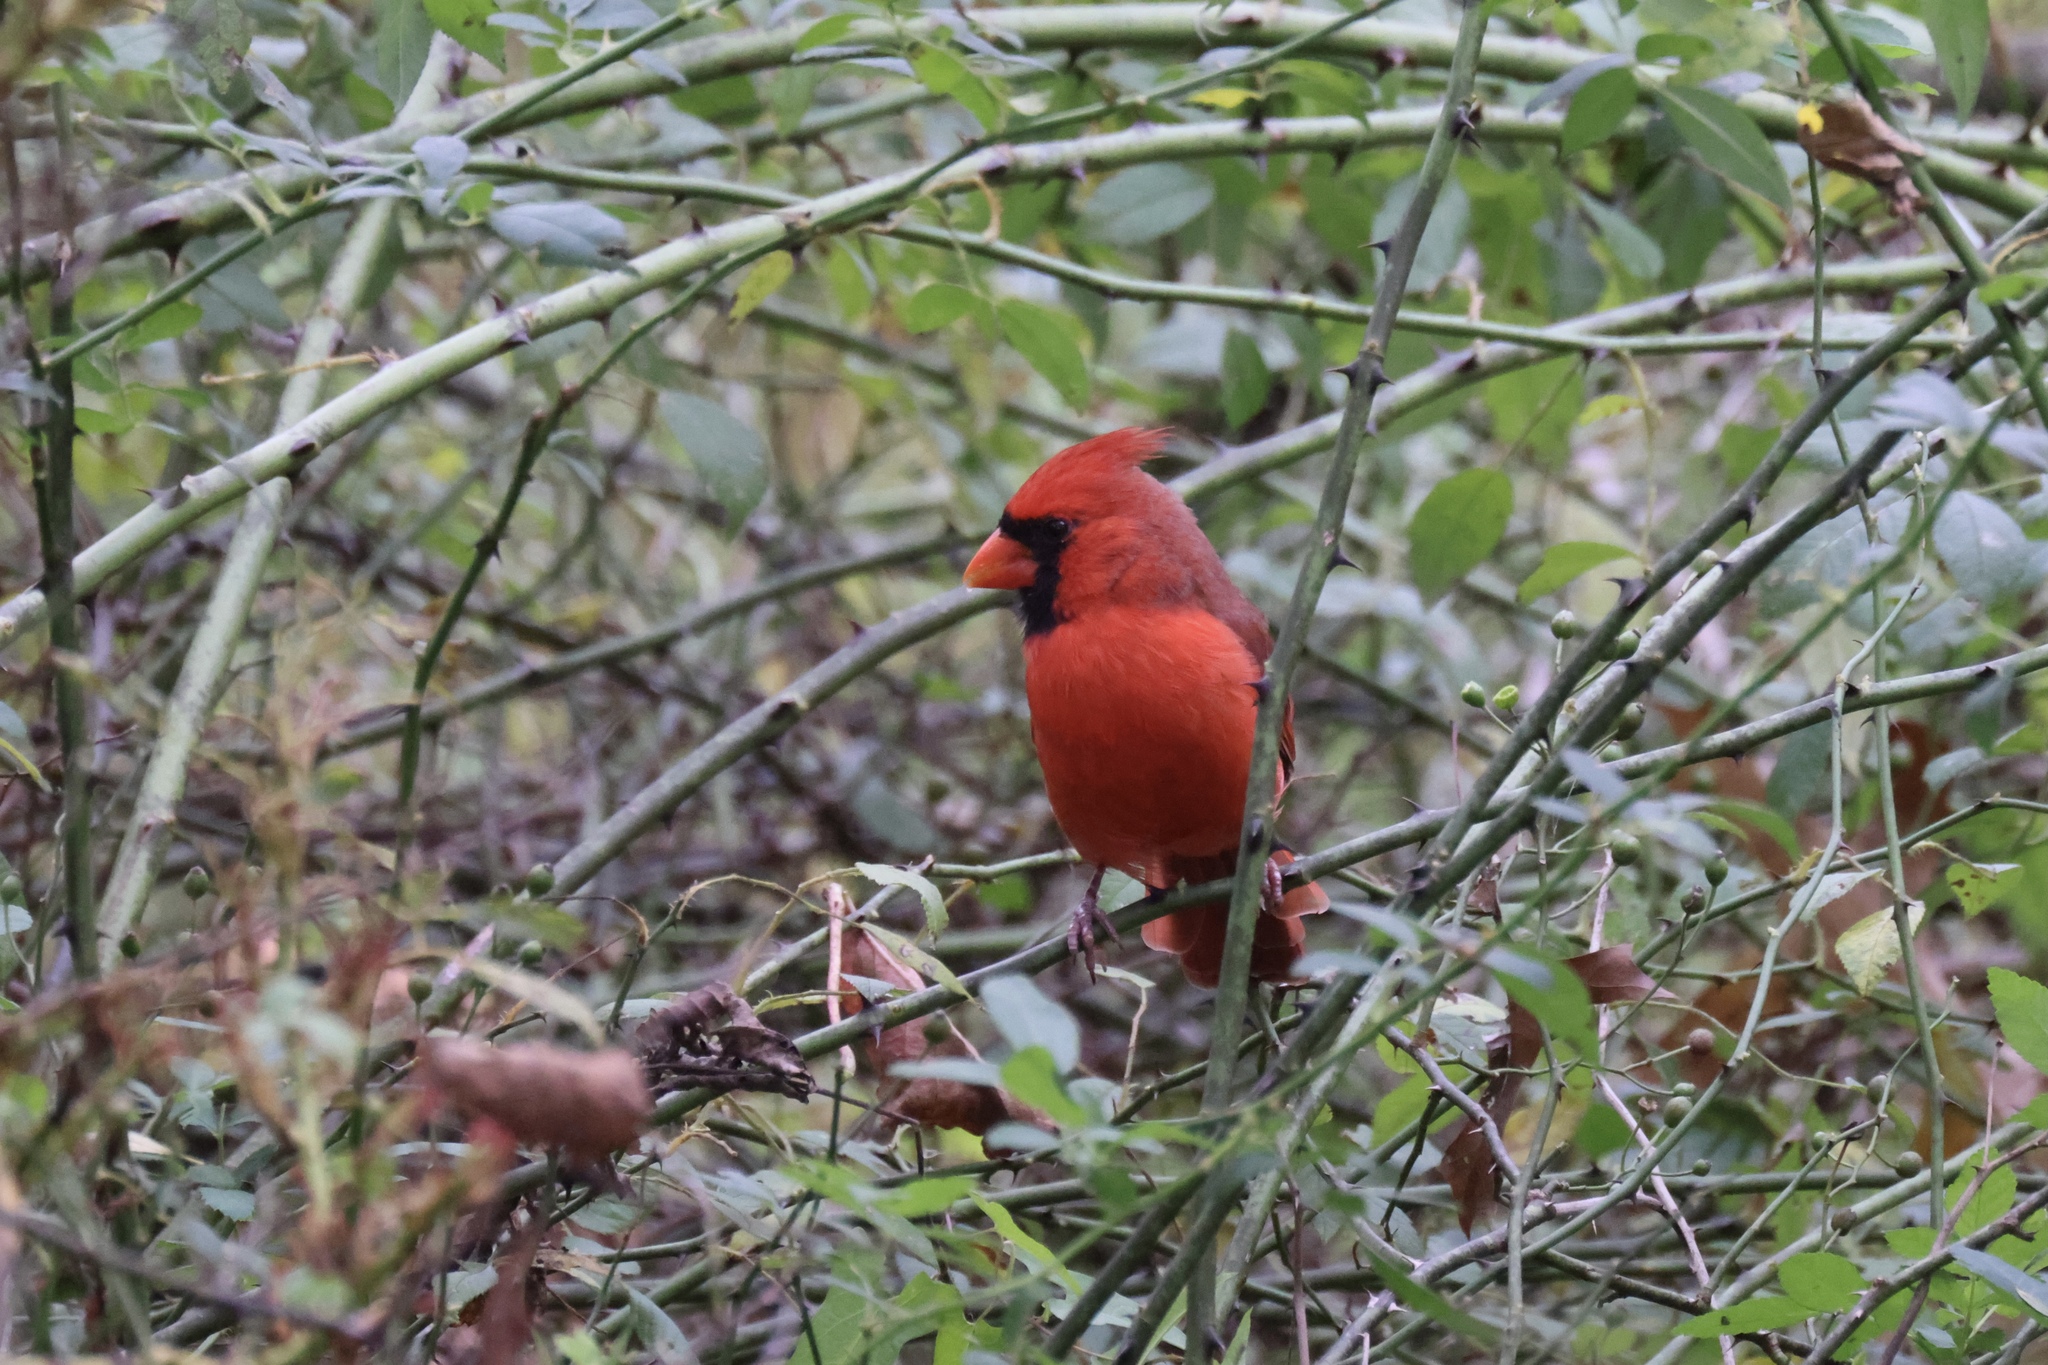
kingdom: Animalia
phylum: Chordata
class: Aves
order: Passeriformes
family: Cardinalidae
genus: Cardinalis
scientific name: Cardinalis cardinalis
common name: Northern cardinal
